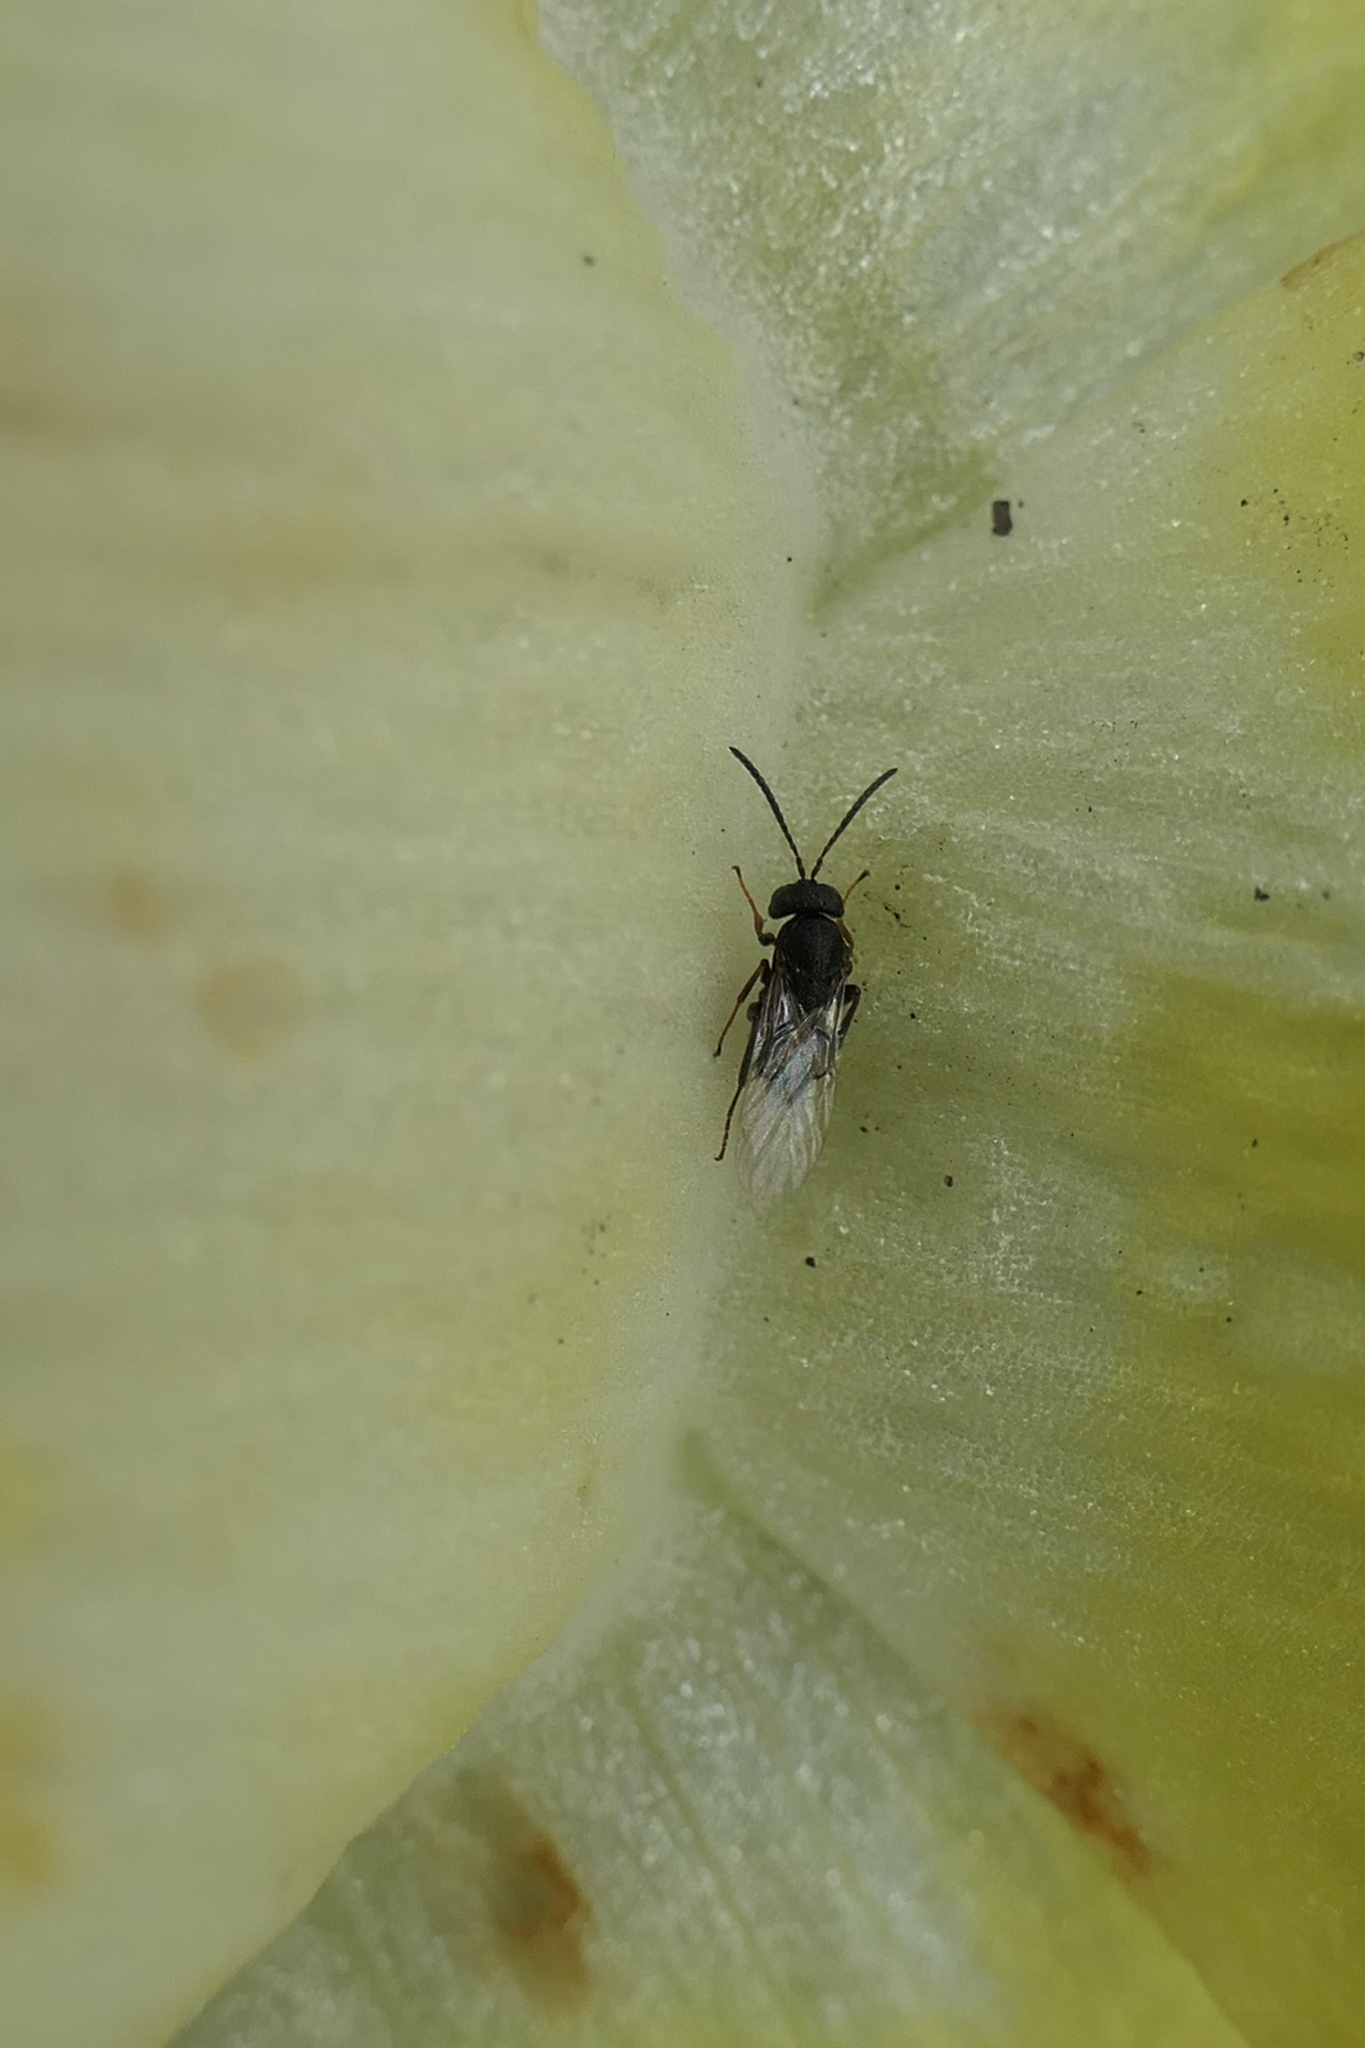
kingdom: Animalia
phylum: Arthropoda
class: Insecta
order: Hymenoptera
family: Cynipidae
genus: Callirhytis
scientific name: Callirhytis erythrocephala
